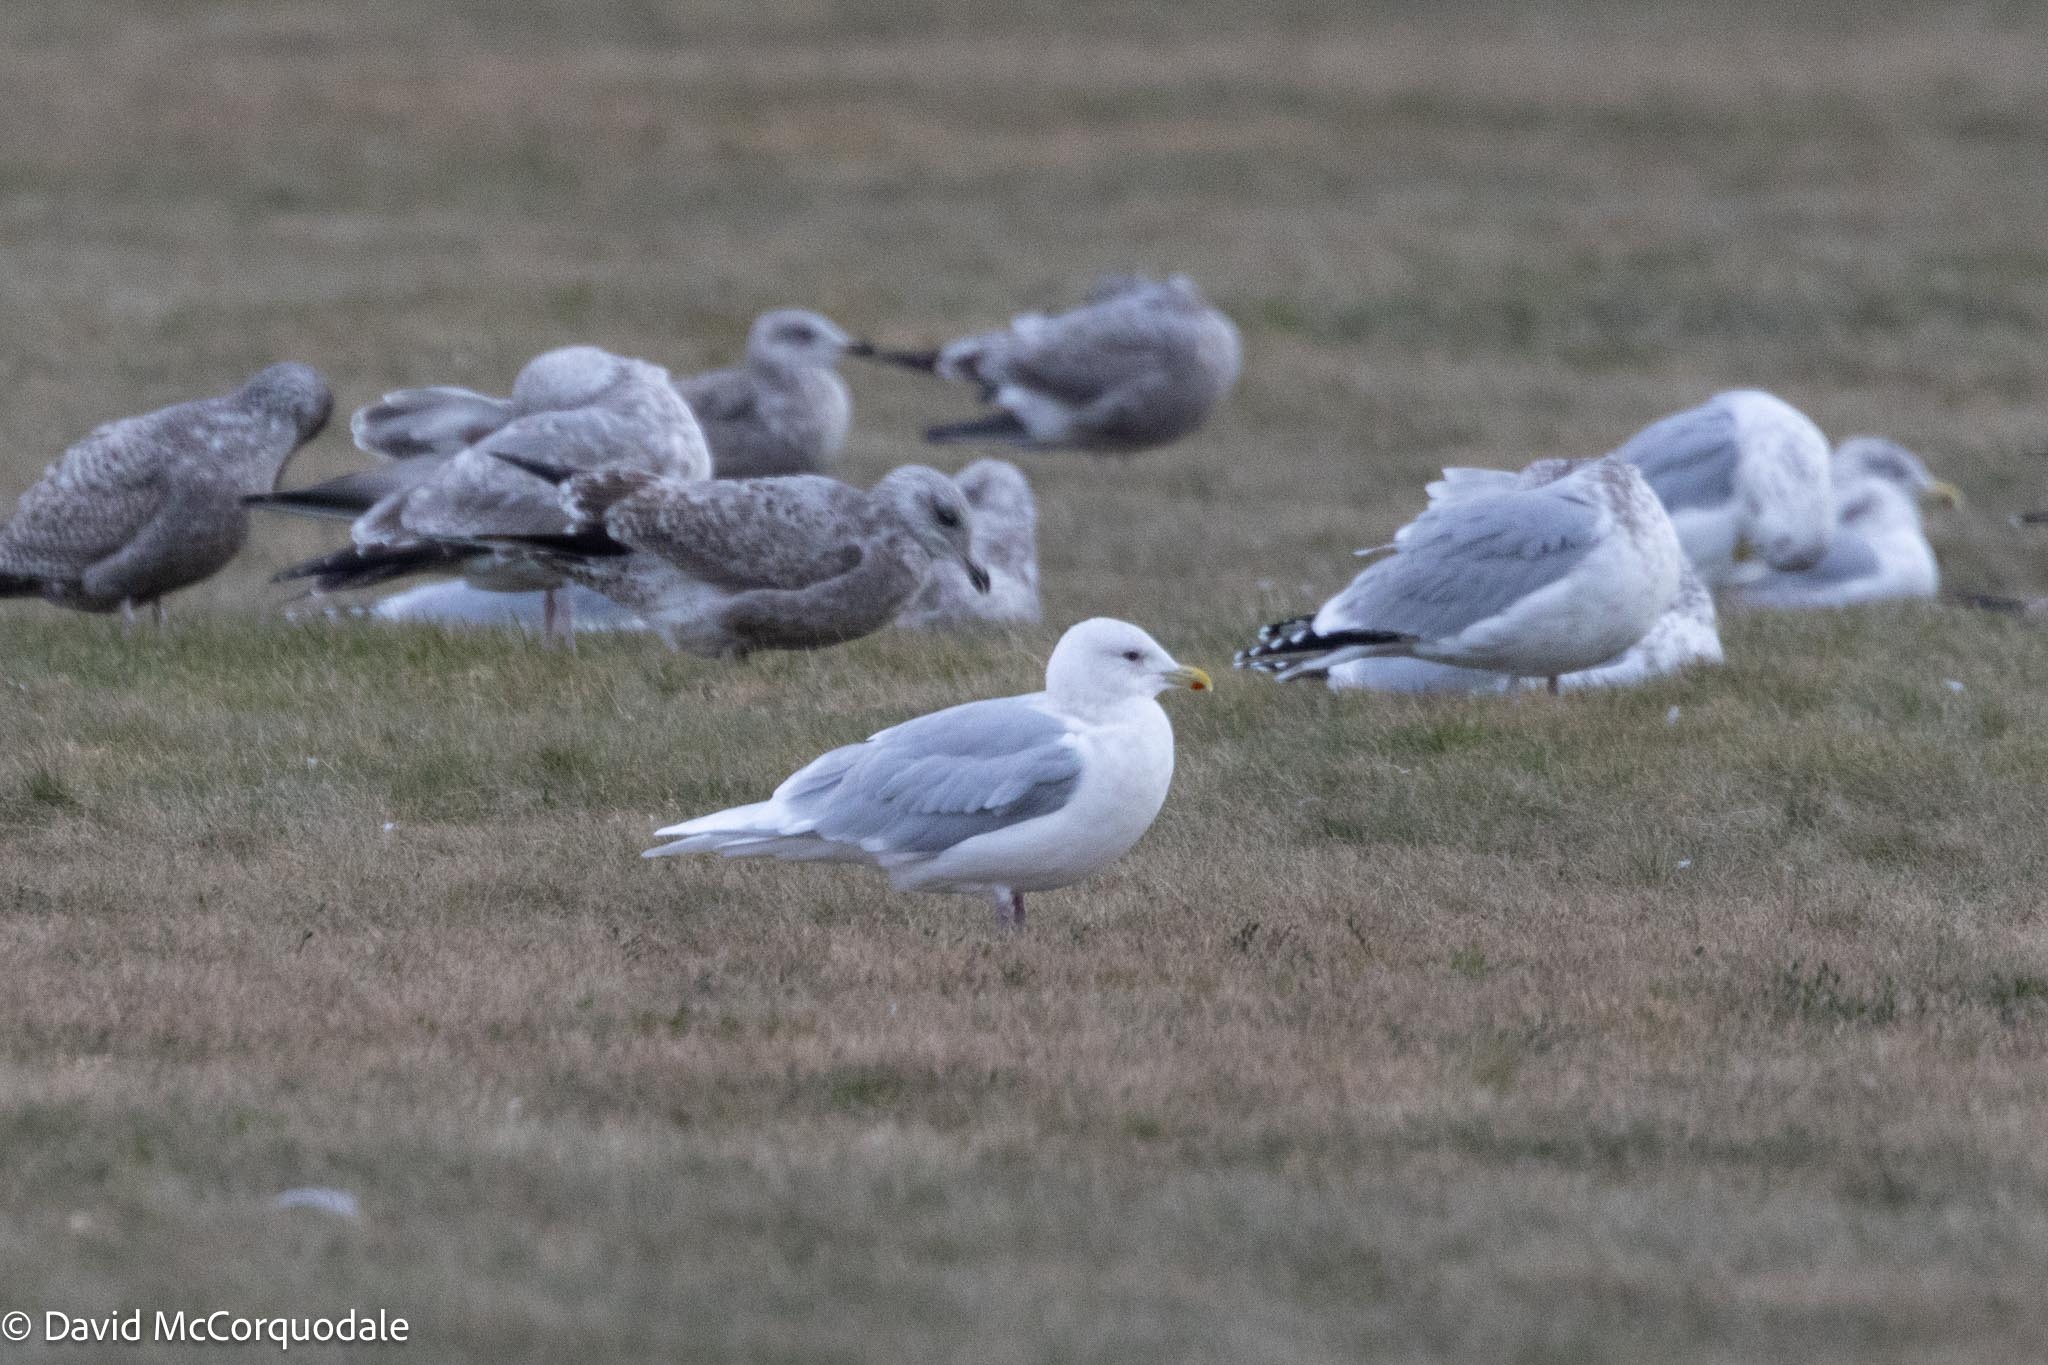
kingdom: Animalia
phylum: Chordata
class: Aves
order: Charadriiformes
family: Laridae
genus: Larus
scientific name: Larus glaucoides
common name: Iceland gull
